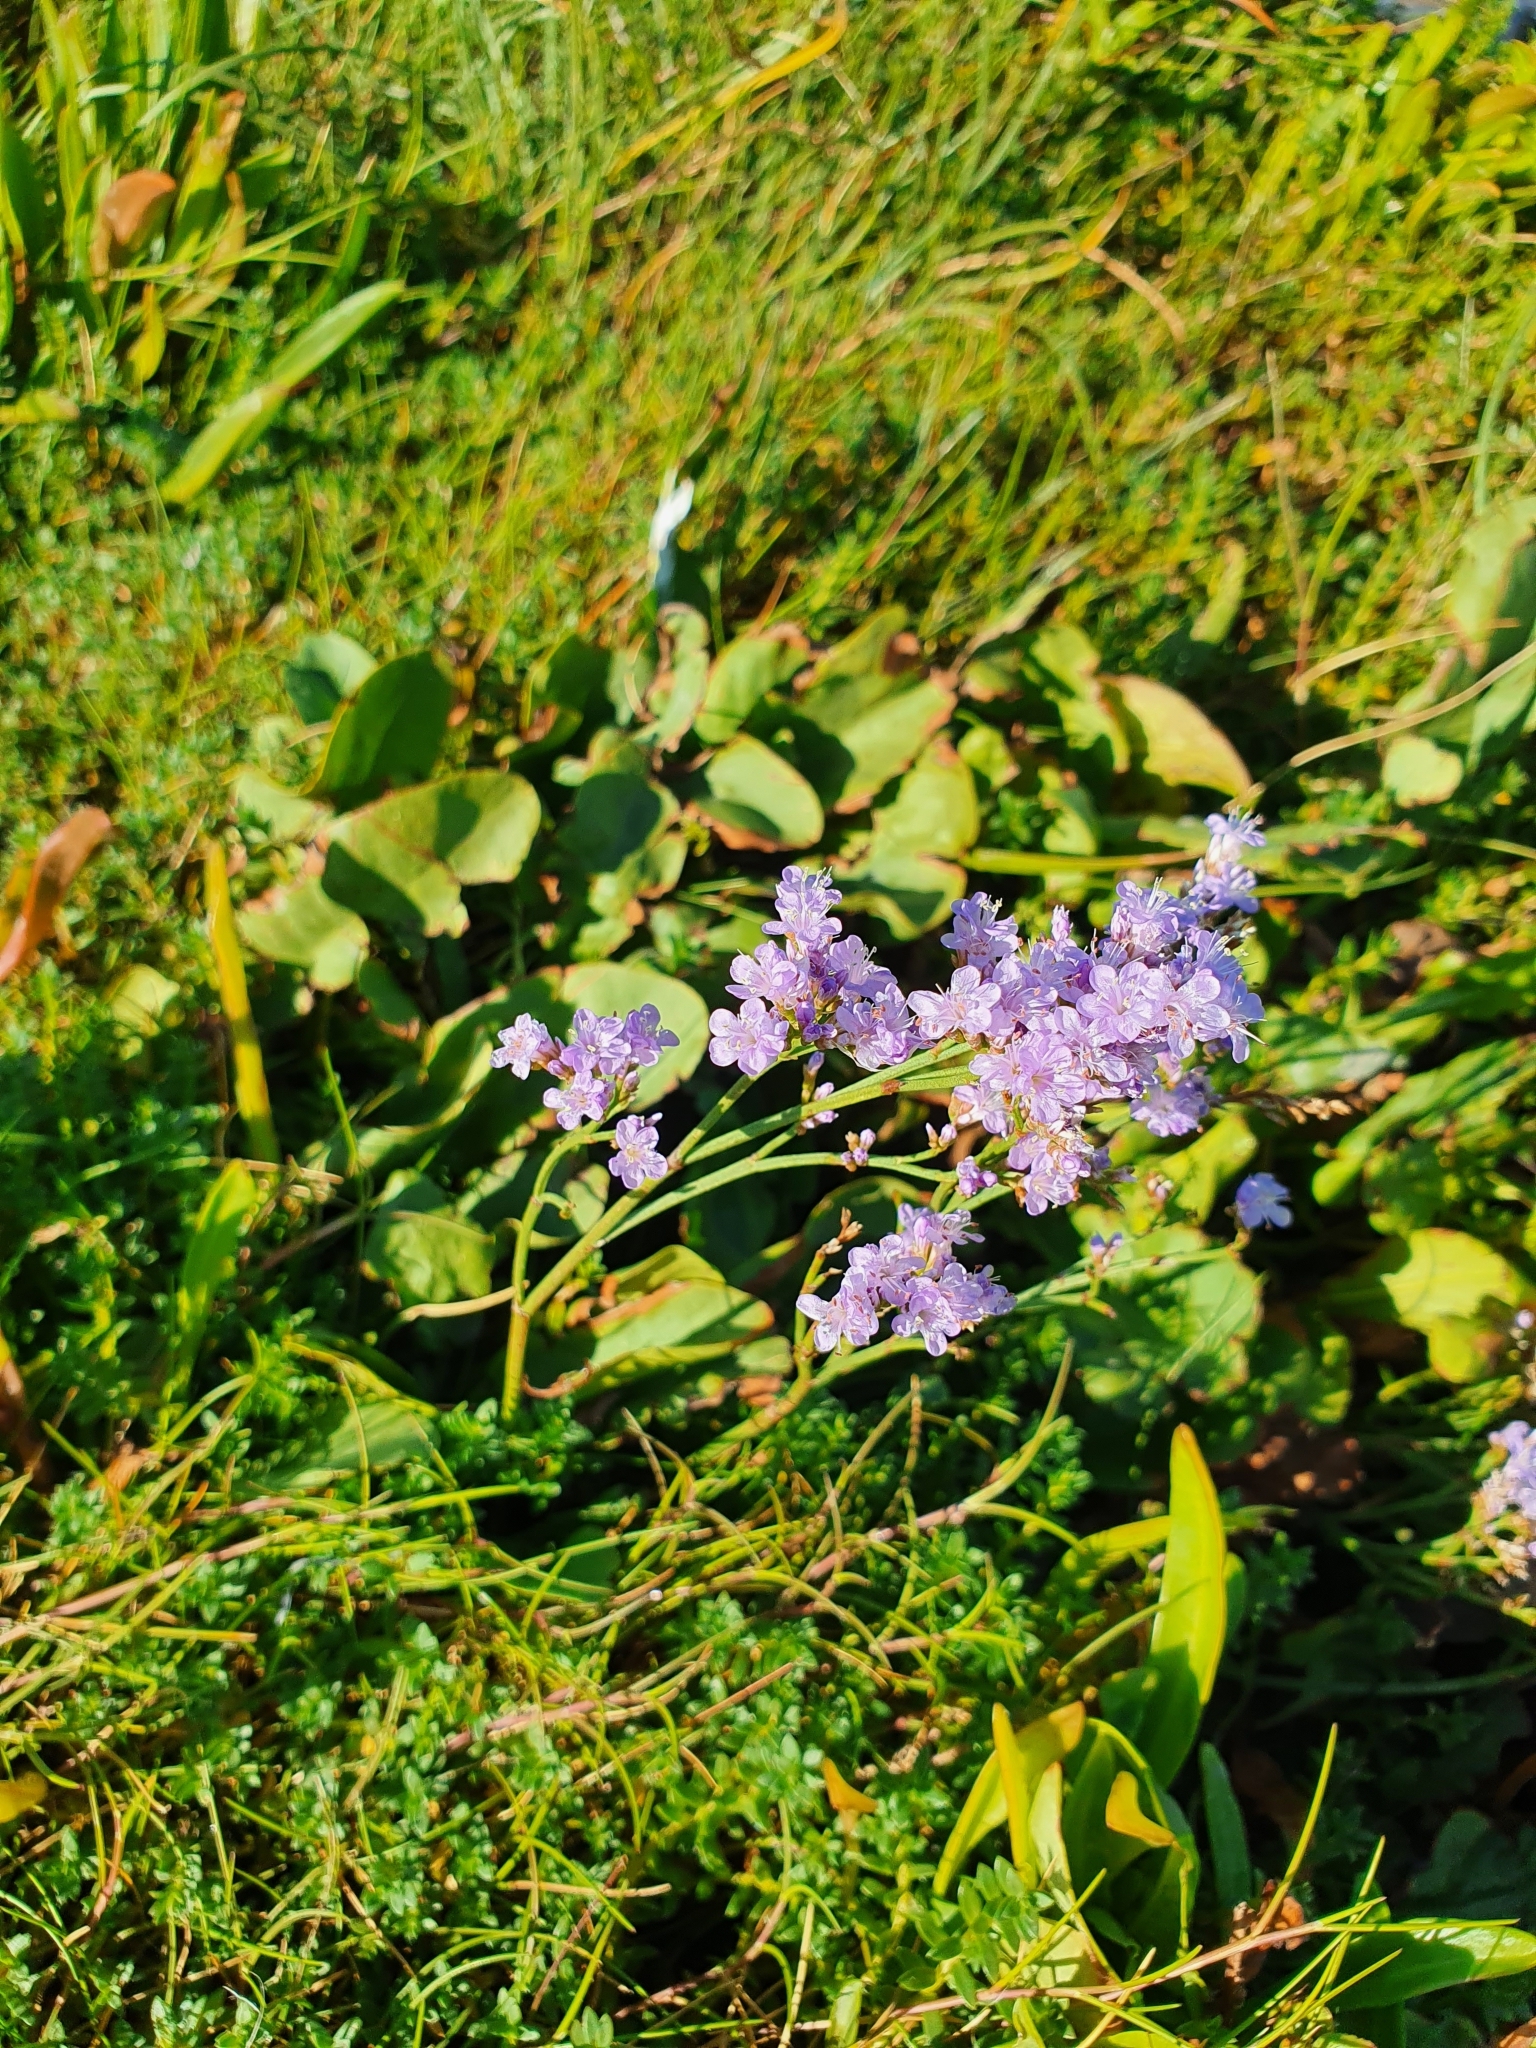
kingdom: Plantae
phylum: Tracheophyta
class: Magnoliopsida
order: Caryophyllales
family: Plumbaginaceae
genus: Limonium
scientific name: Limonium vulgare
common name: Common sea-lavender
